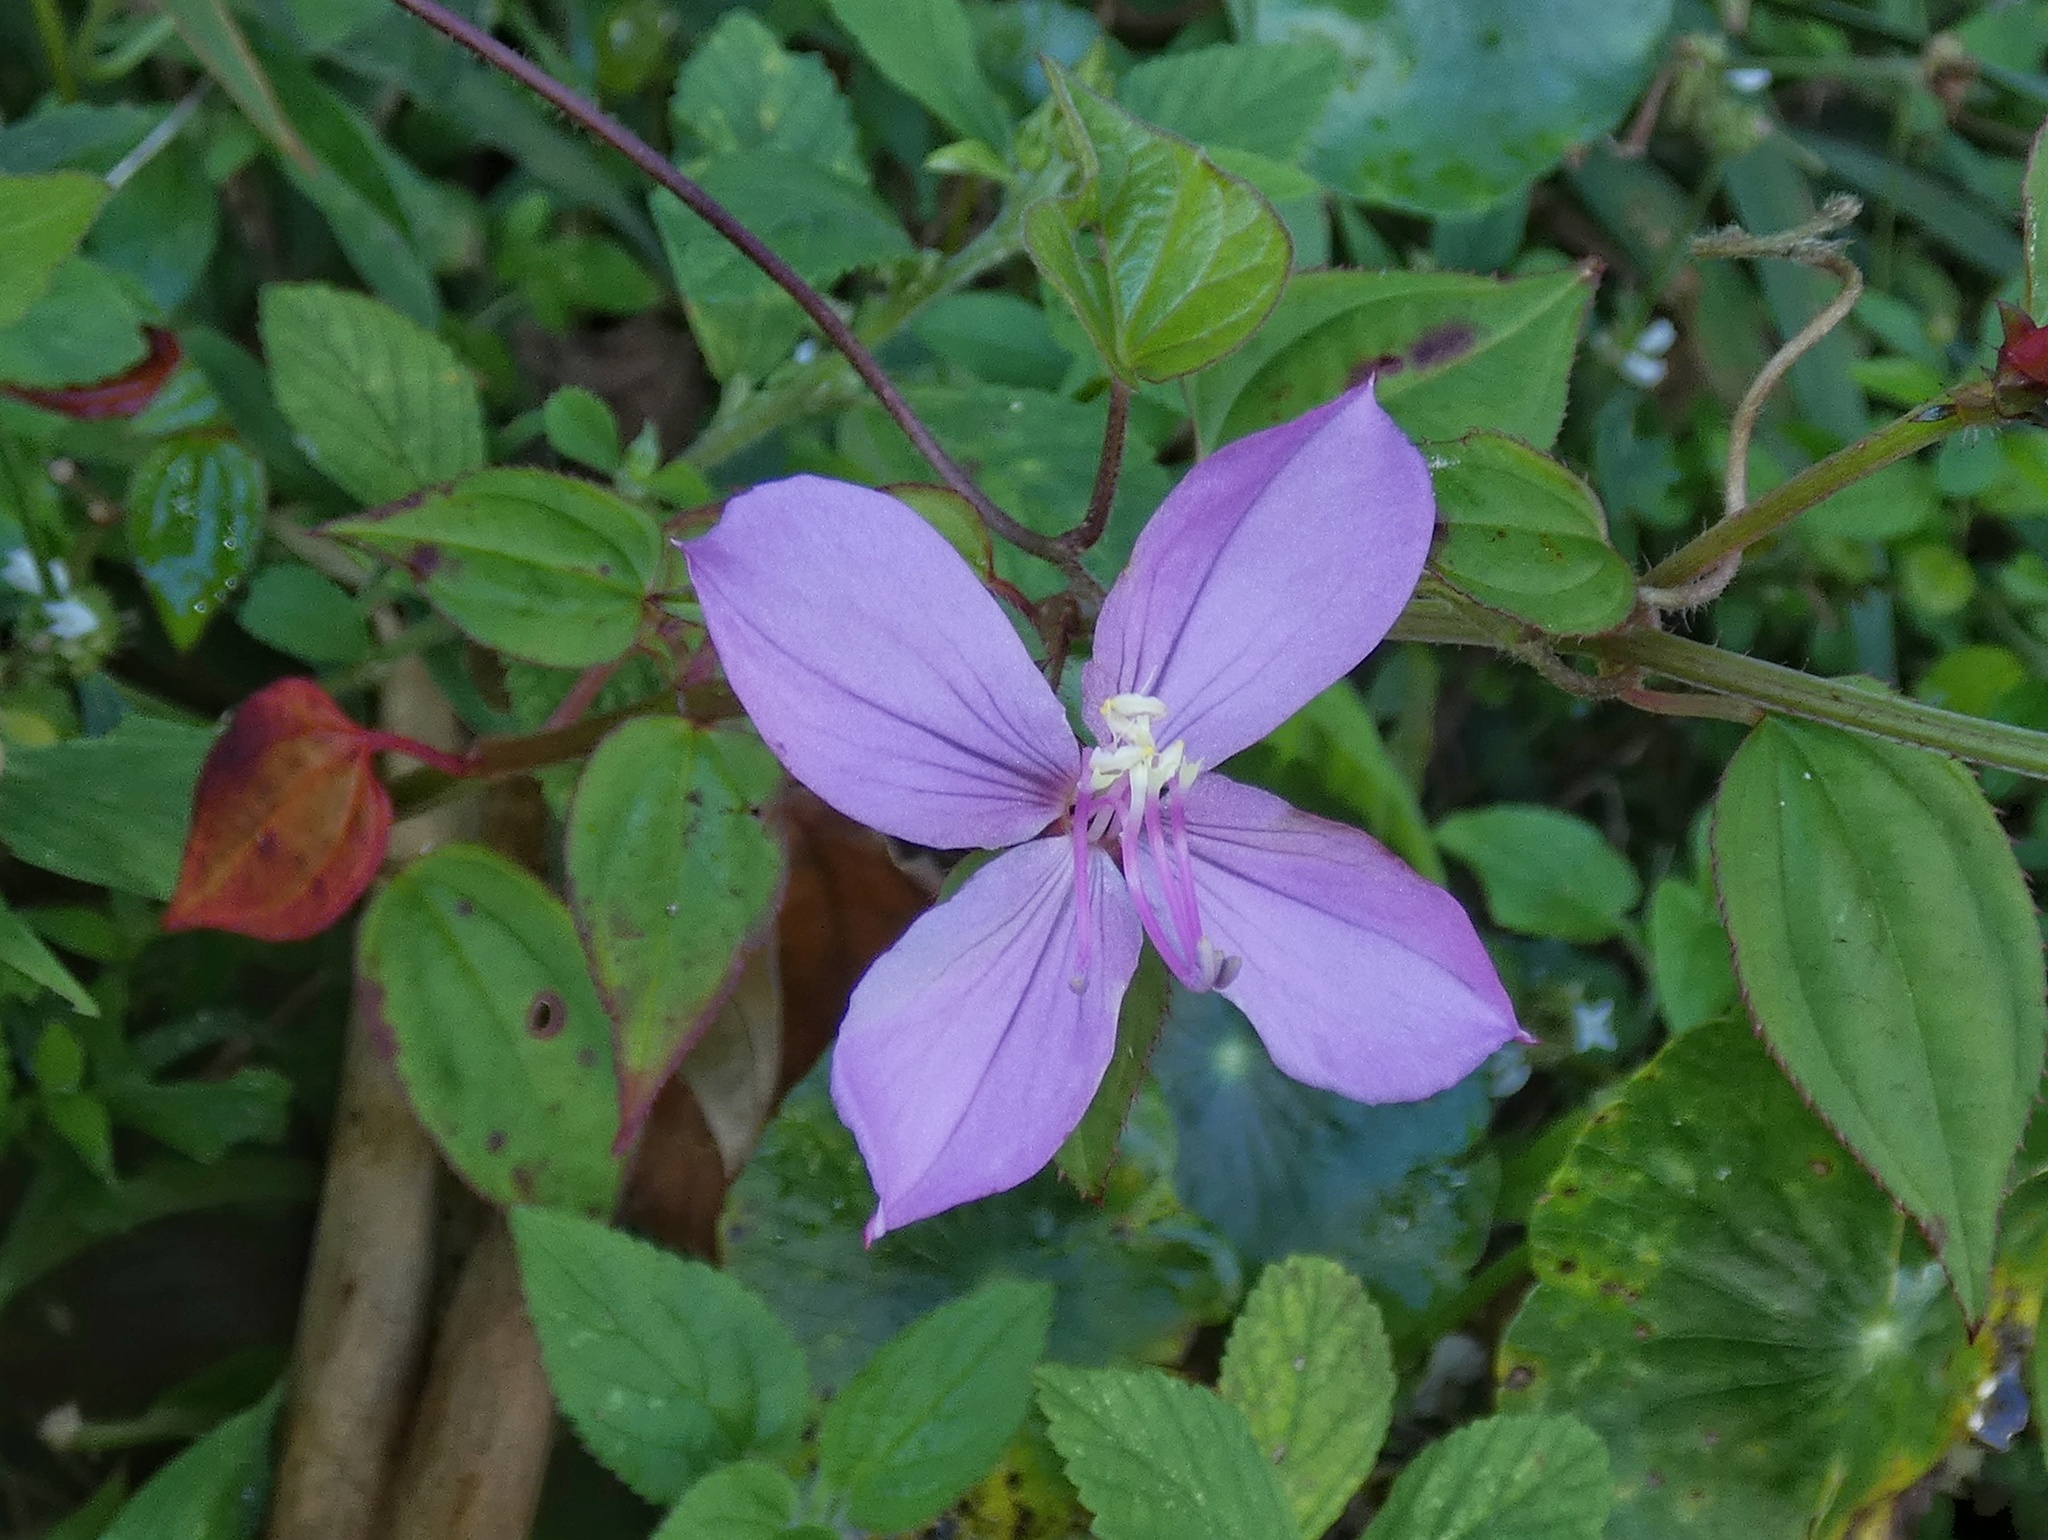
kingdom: Plantae
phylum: Tracheophyta
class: Magnoliopsida
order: Myrtales
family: Melastomataceae
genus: Arthrostemma
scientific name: Arthrostemma ciliatum
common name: Everblooming eavender
